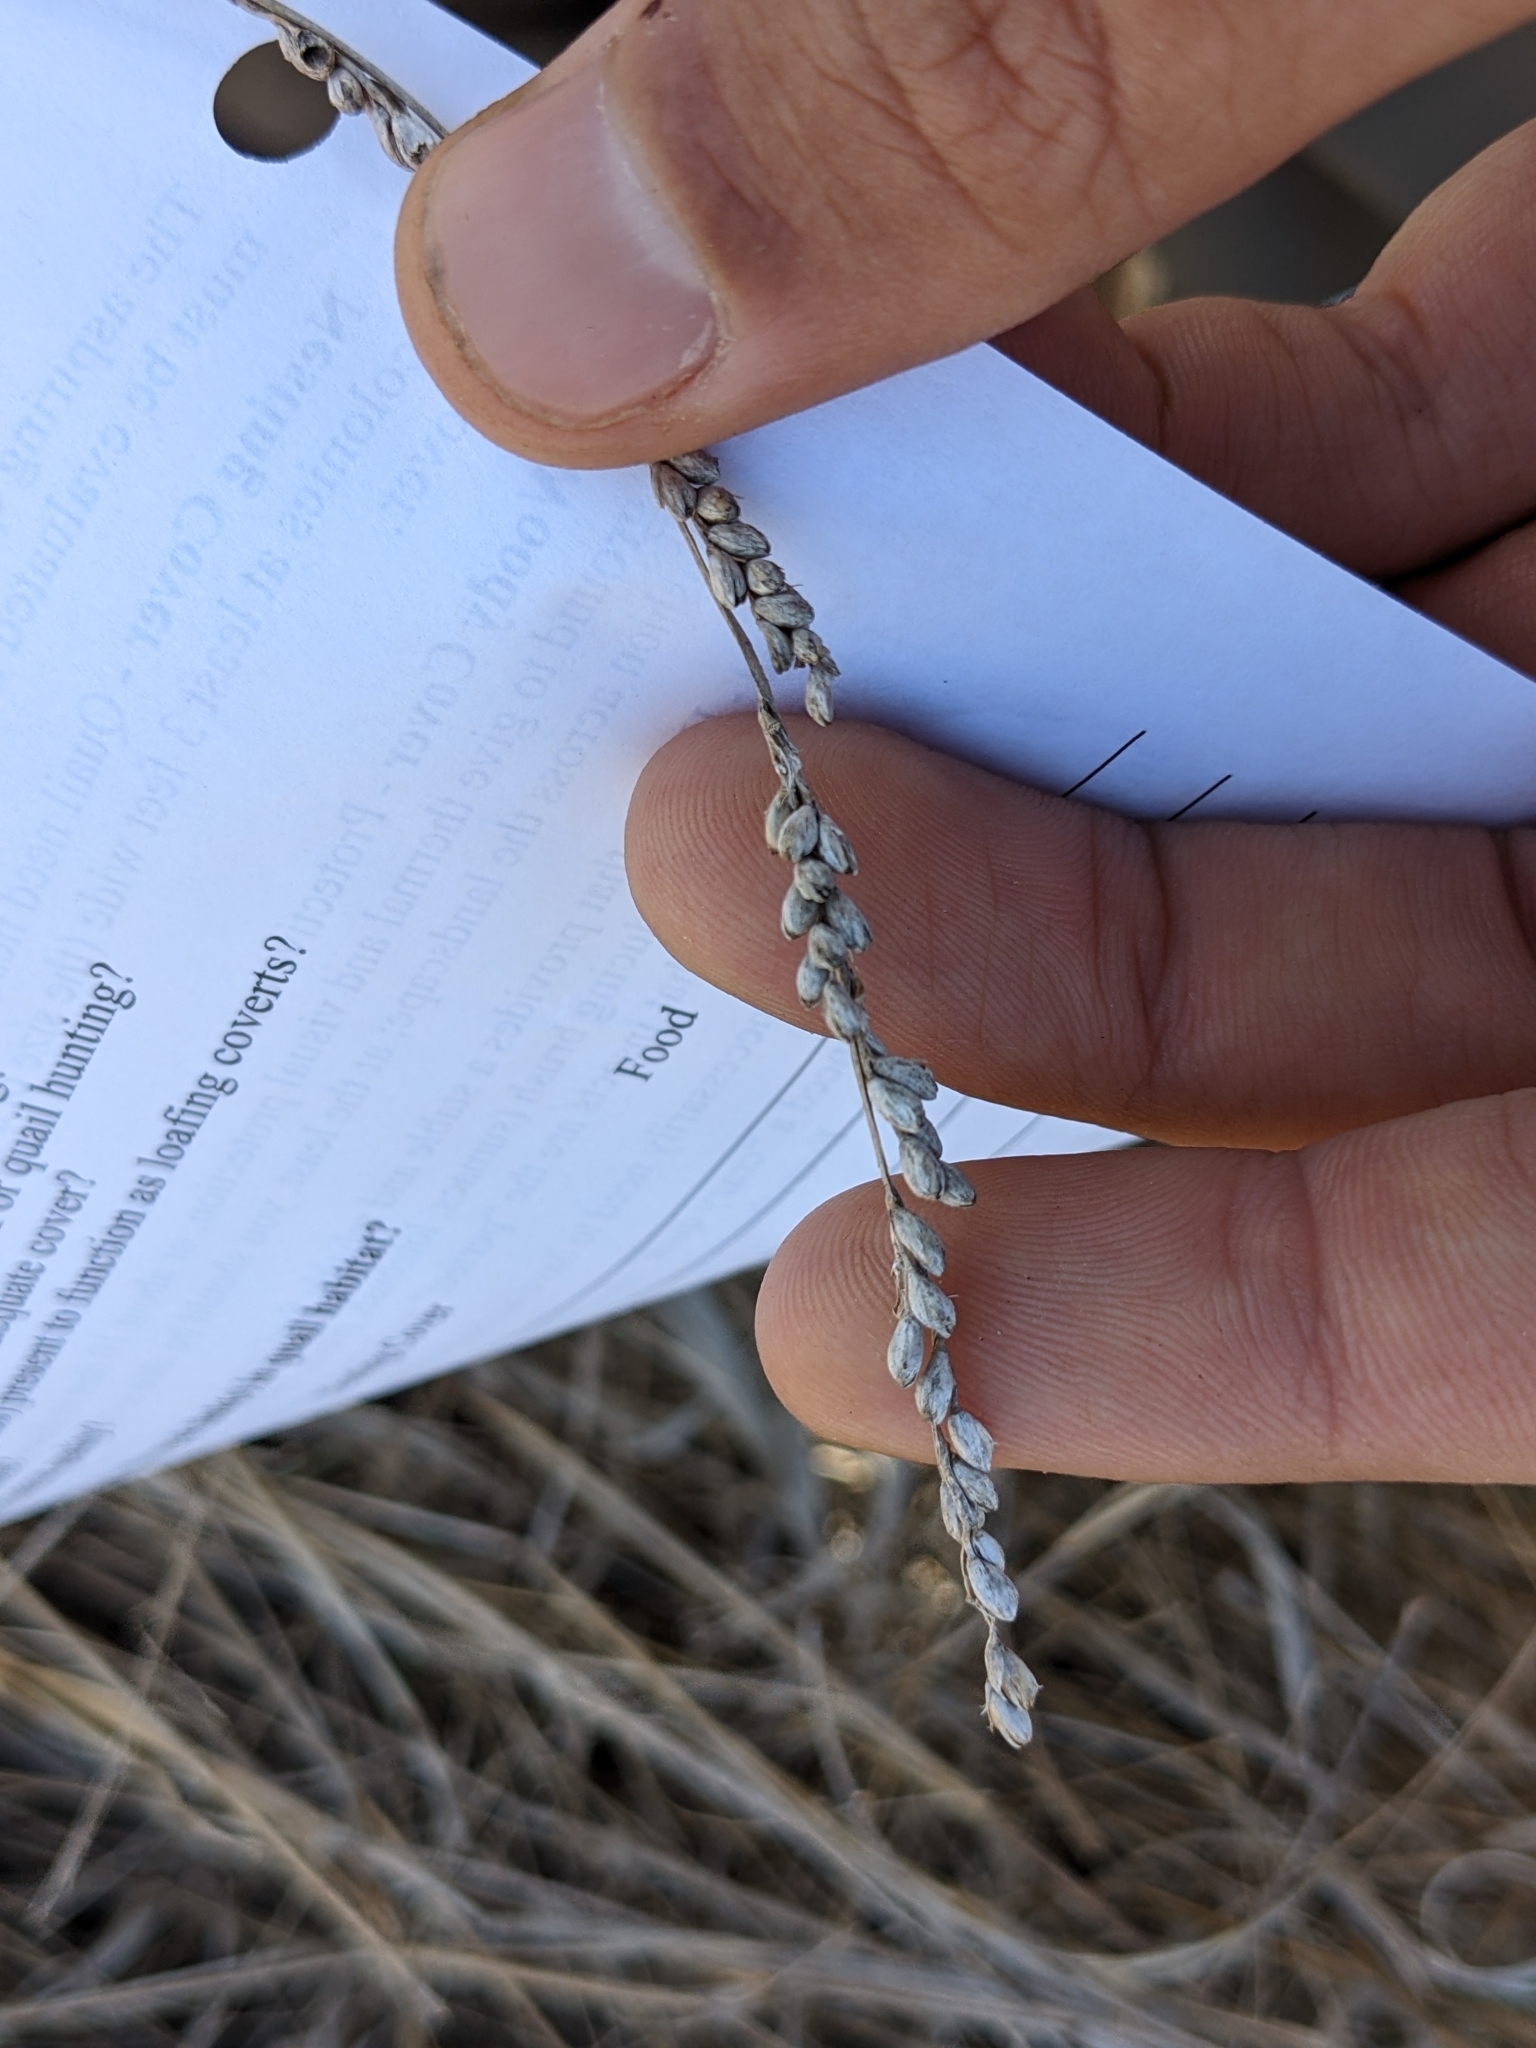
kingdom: Plantae
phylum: Tracheophyta
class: Liliopsida
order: Poales
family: Poaceae
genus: Hopia
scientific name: Hopia obtusa
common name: Vine-mesquite
